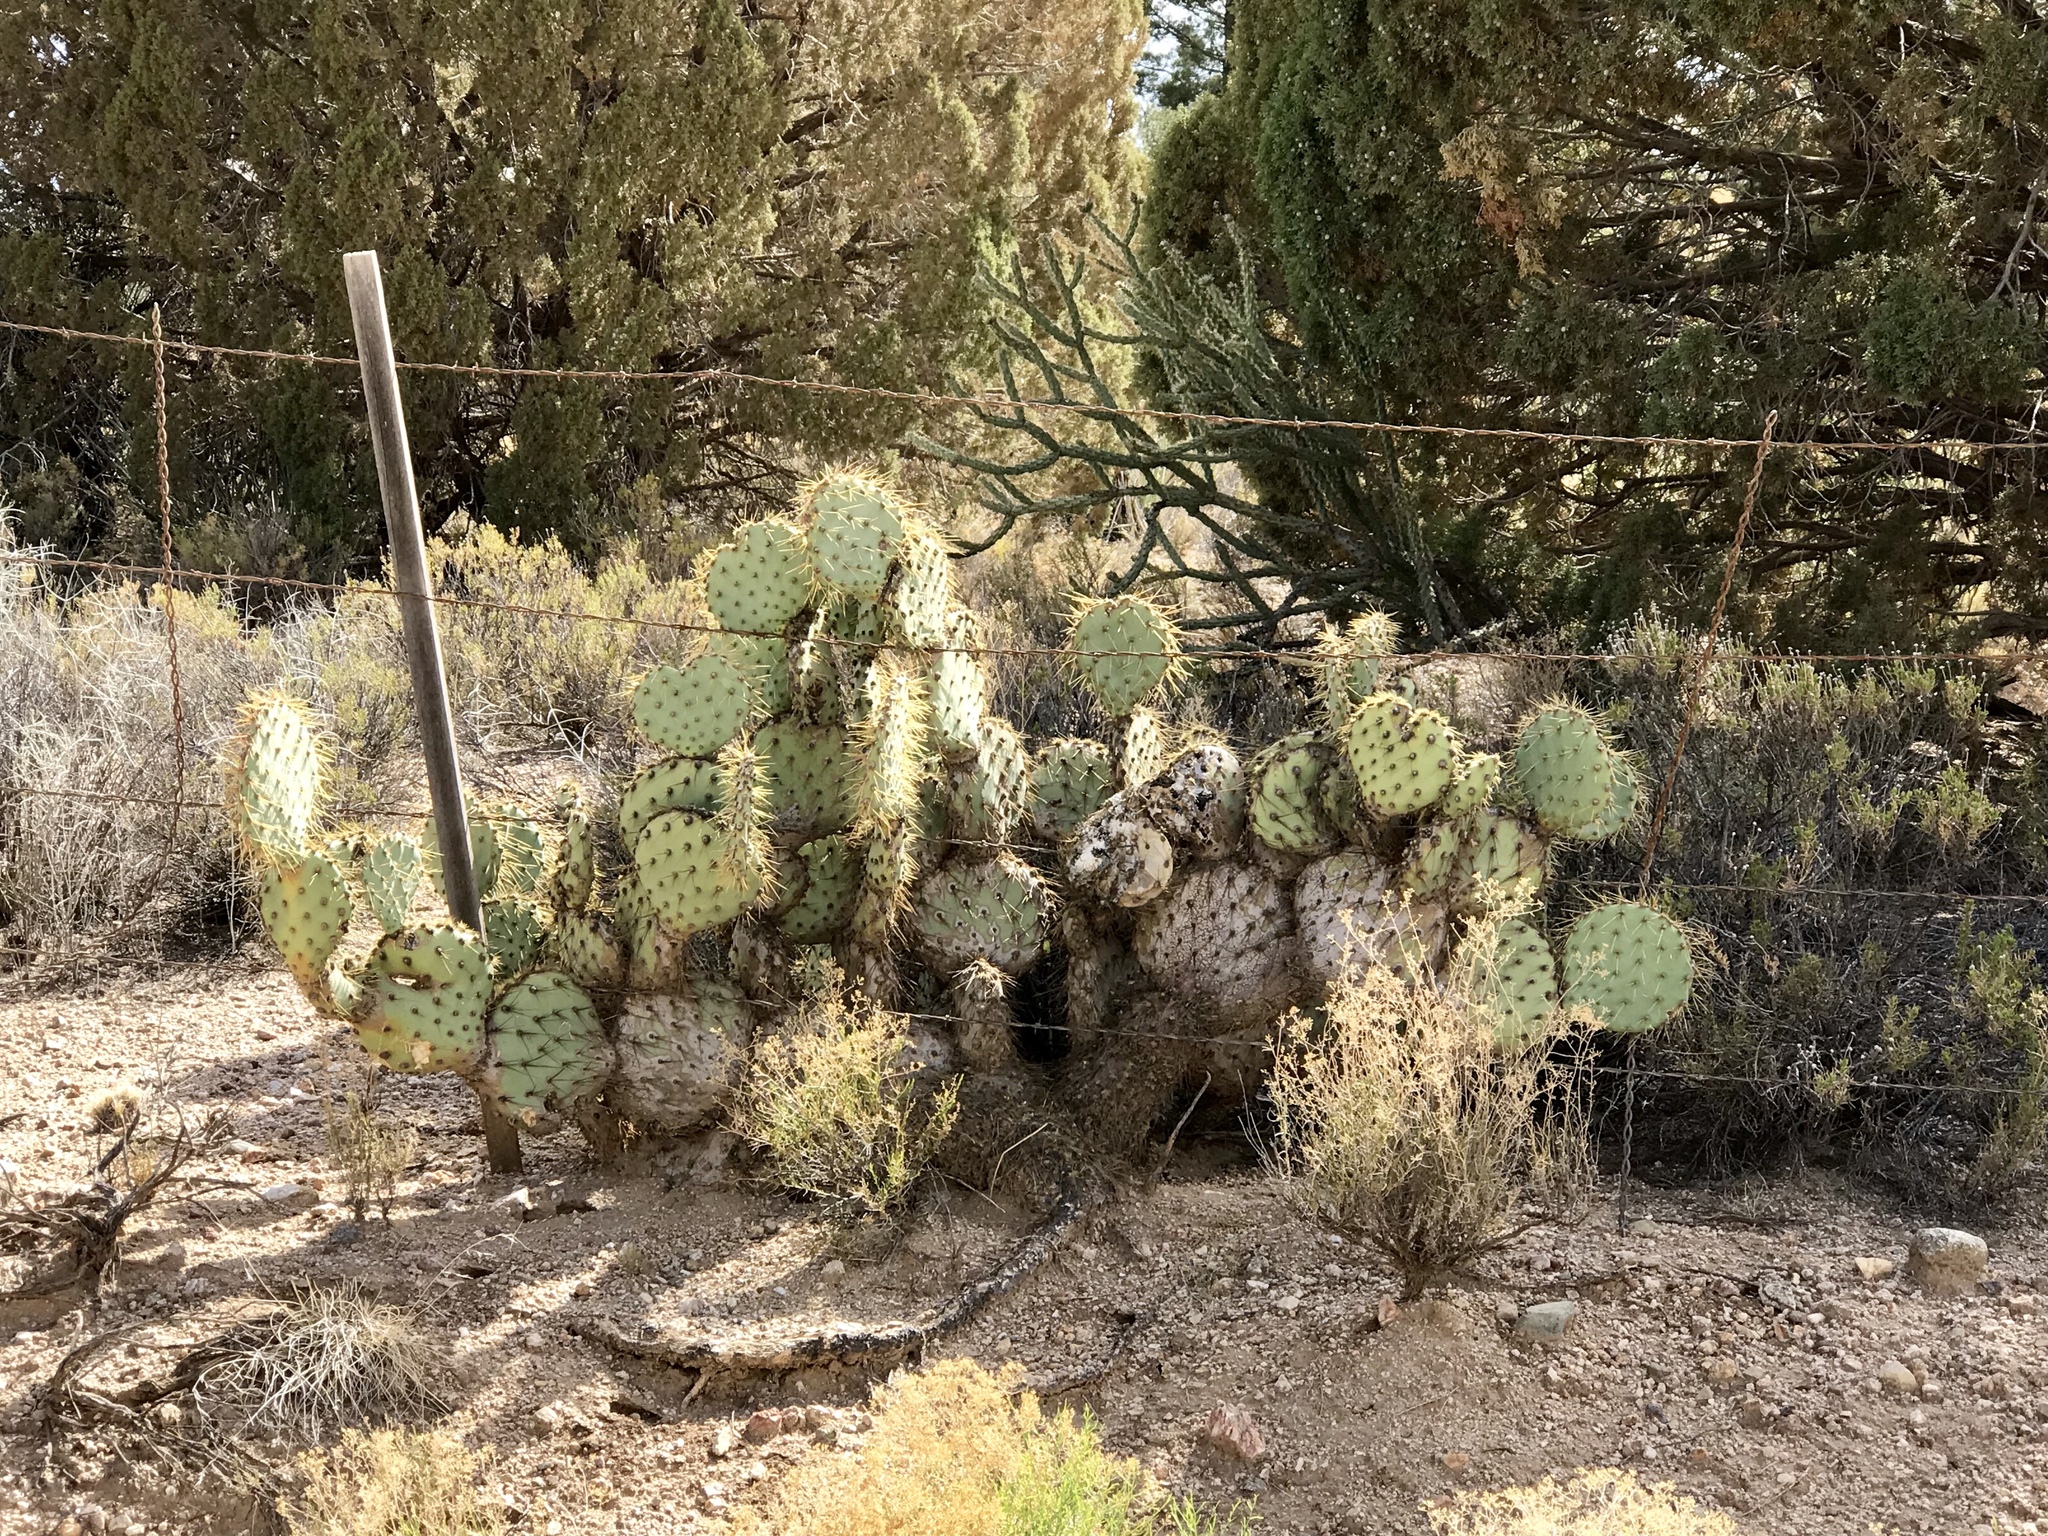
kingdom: Plantae
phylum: Tracheophyta
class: Magnoliopsida
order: Caryophyllales
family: Cactaceae
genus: Opuntia
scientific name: Opuntia chlorotica
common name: Dollar-joint prickly-pear
